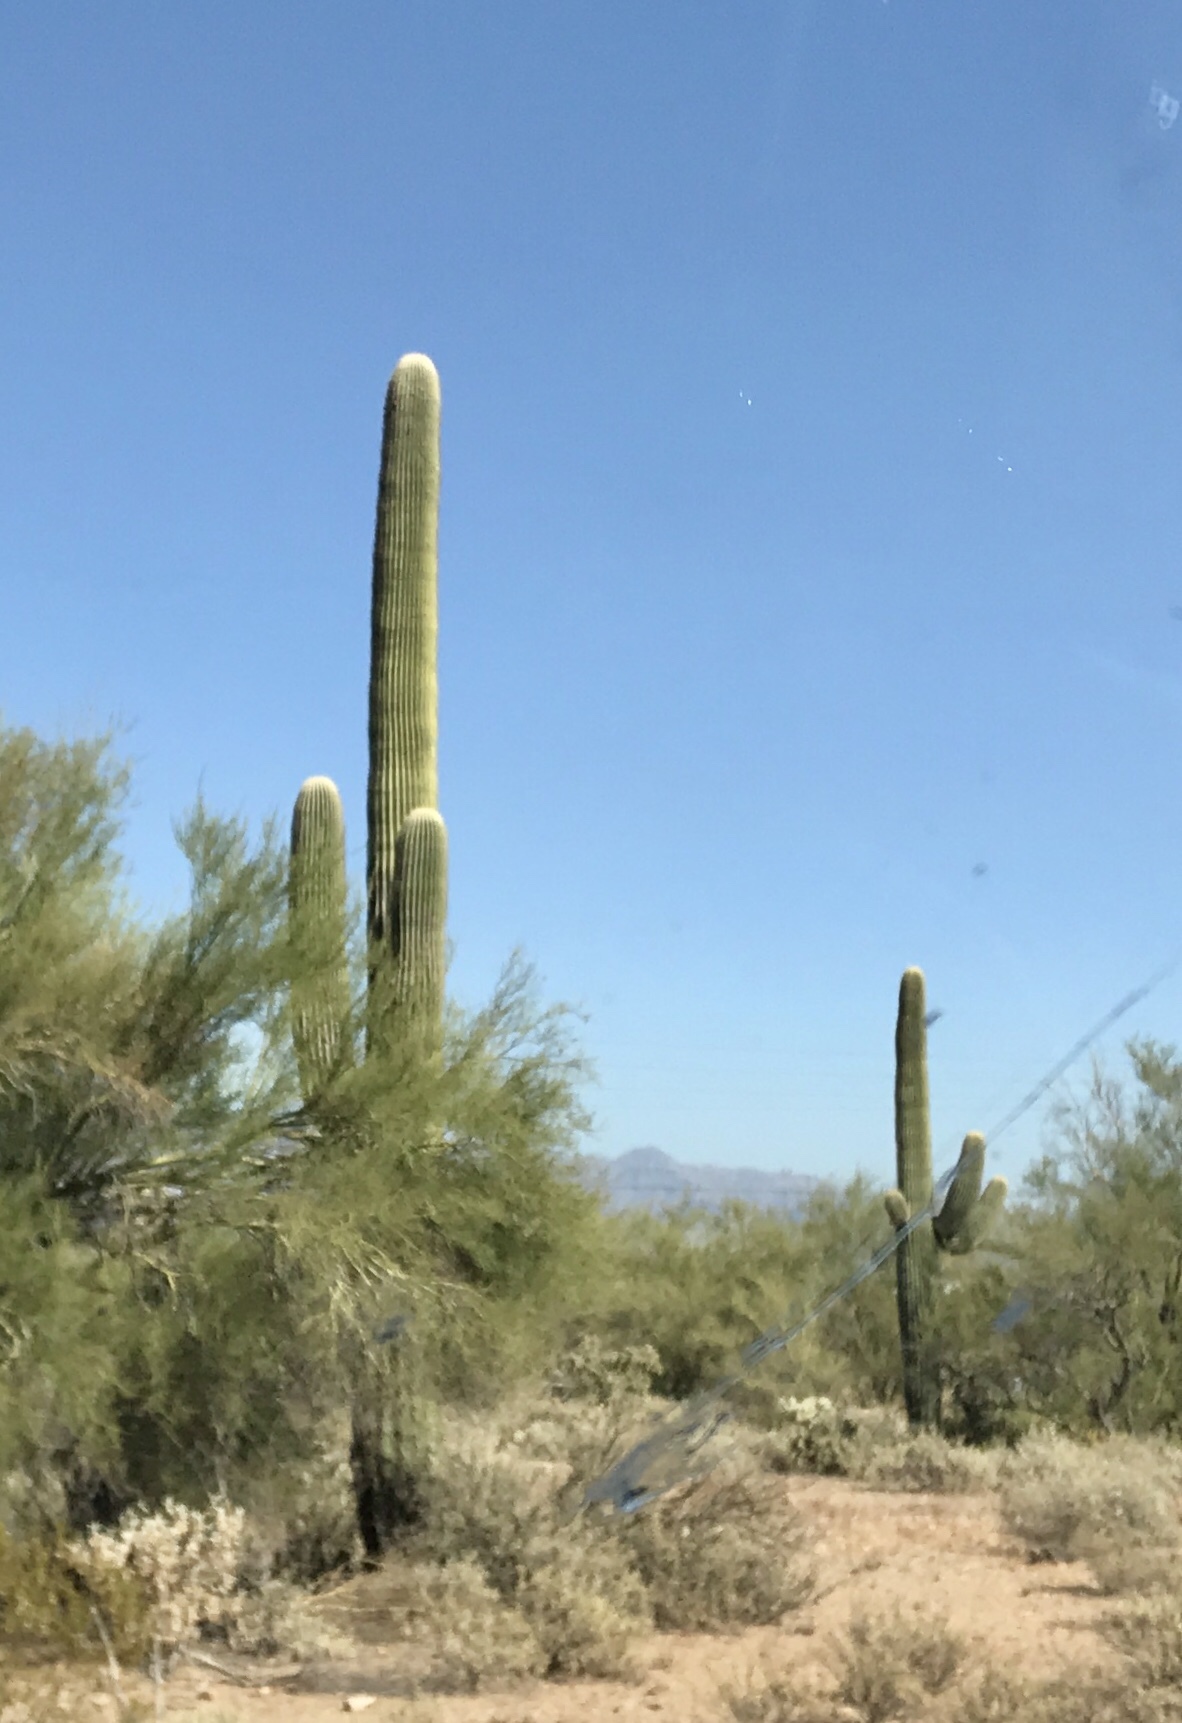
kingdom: Plantae
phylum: Tracheophyta
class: Magnoliopsida
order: Caryophyllales
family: Cactaceae
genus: Carnegiea
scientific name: Carnegiea gigantea
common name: Saguaro
